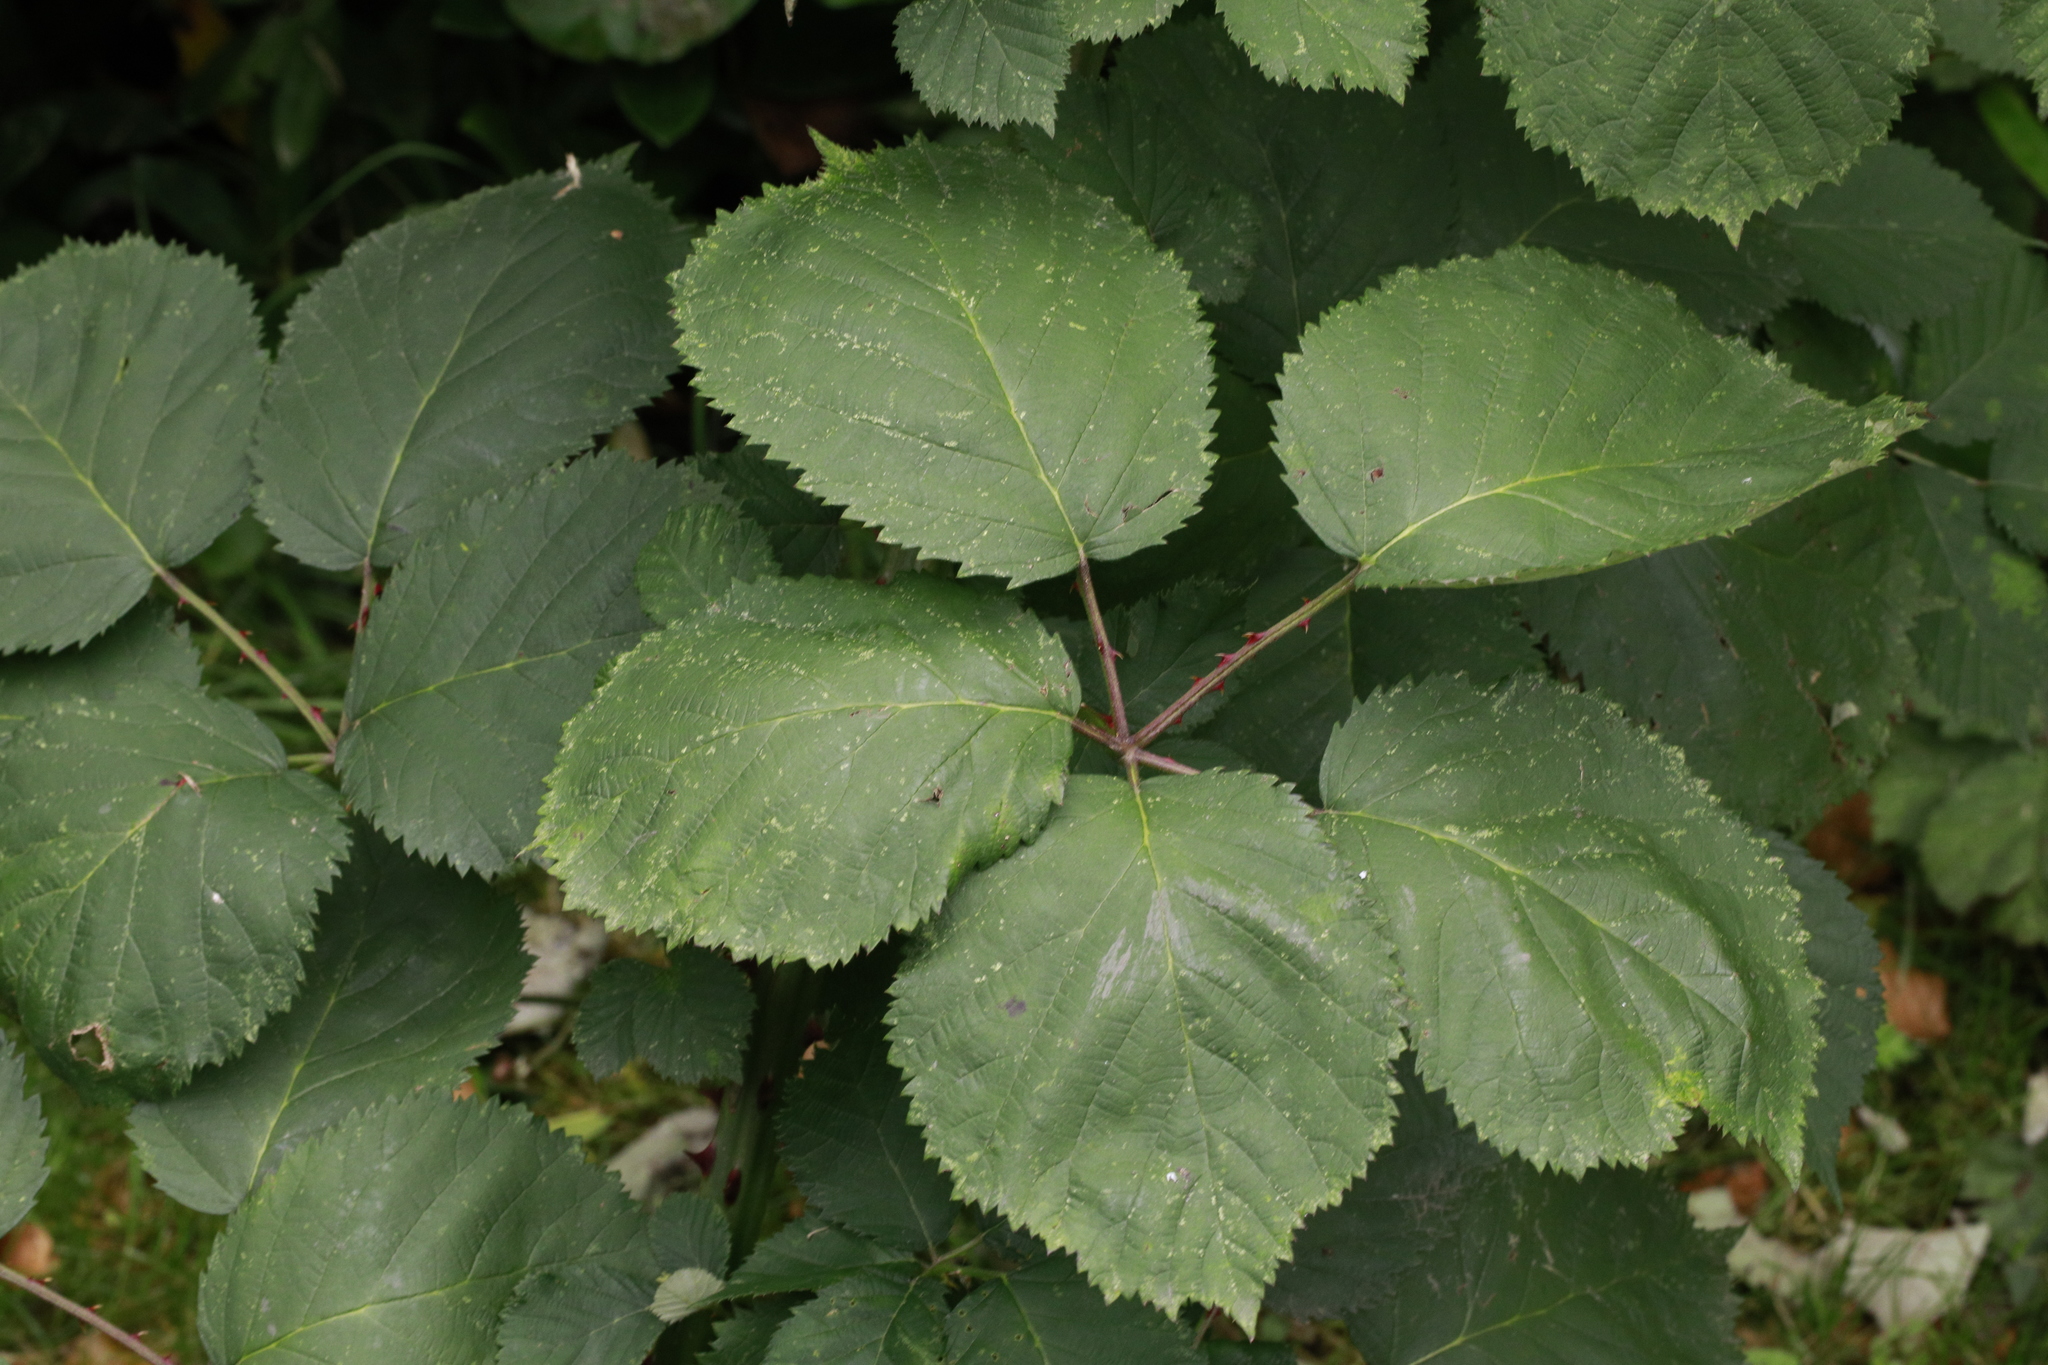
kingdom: Plantae
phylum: Tracheophyta
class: Magnoliopsida
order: Rosales
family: Rosaceae
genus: Rubus
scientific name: Rubus armeniacus
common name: Himalayan blackberry
